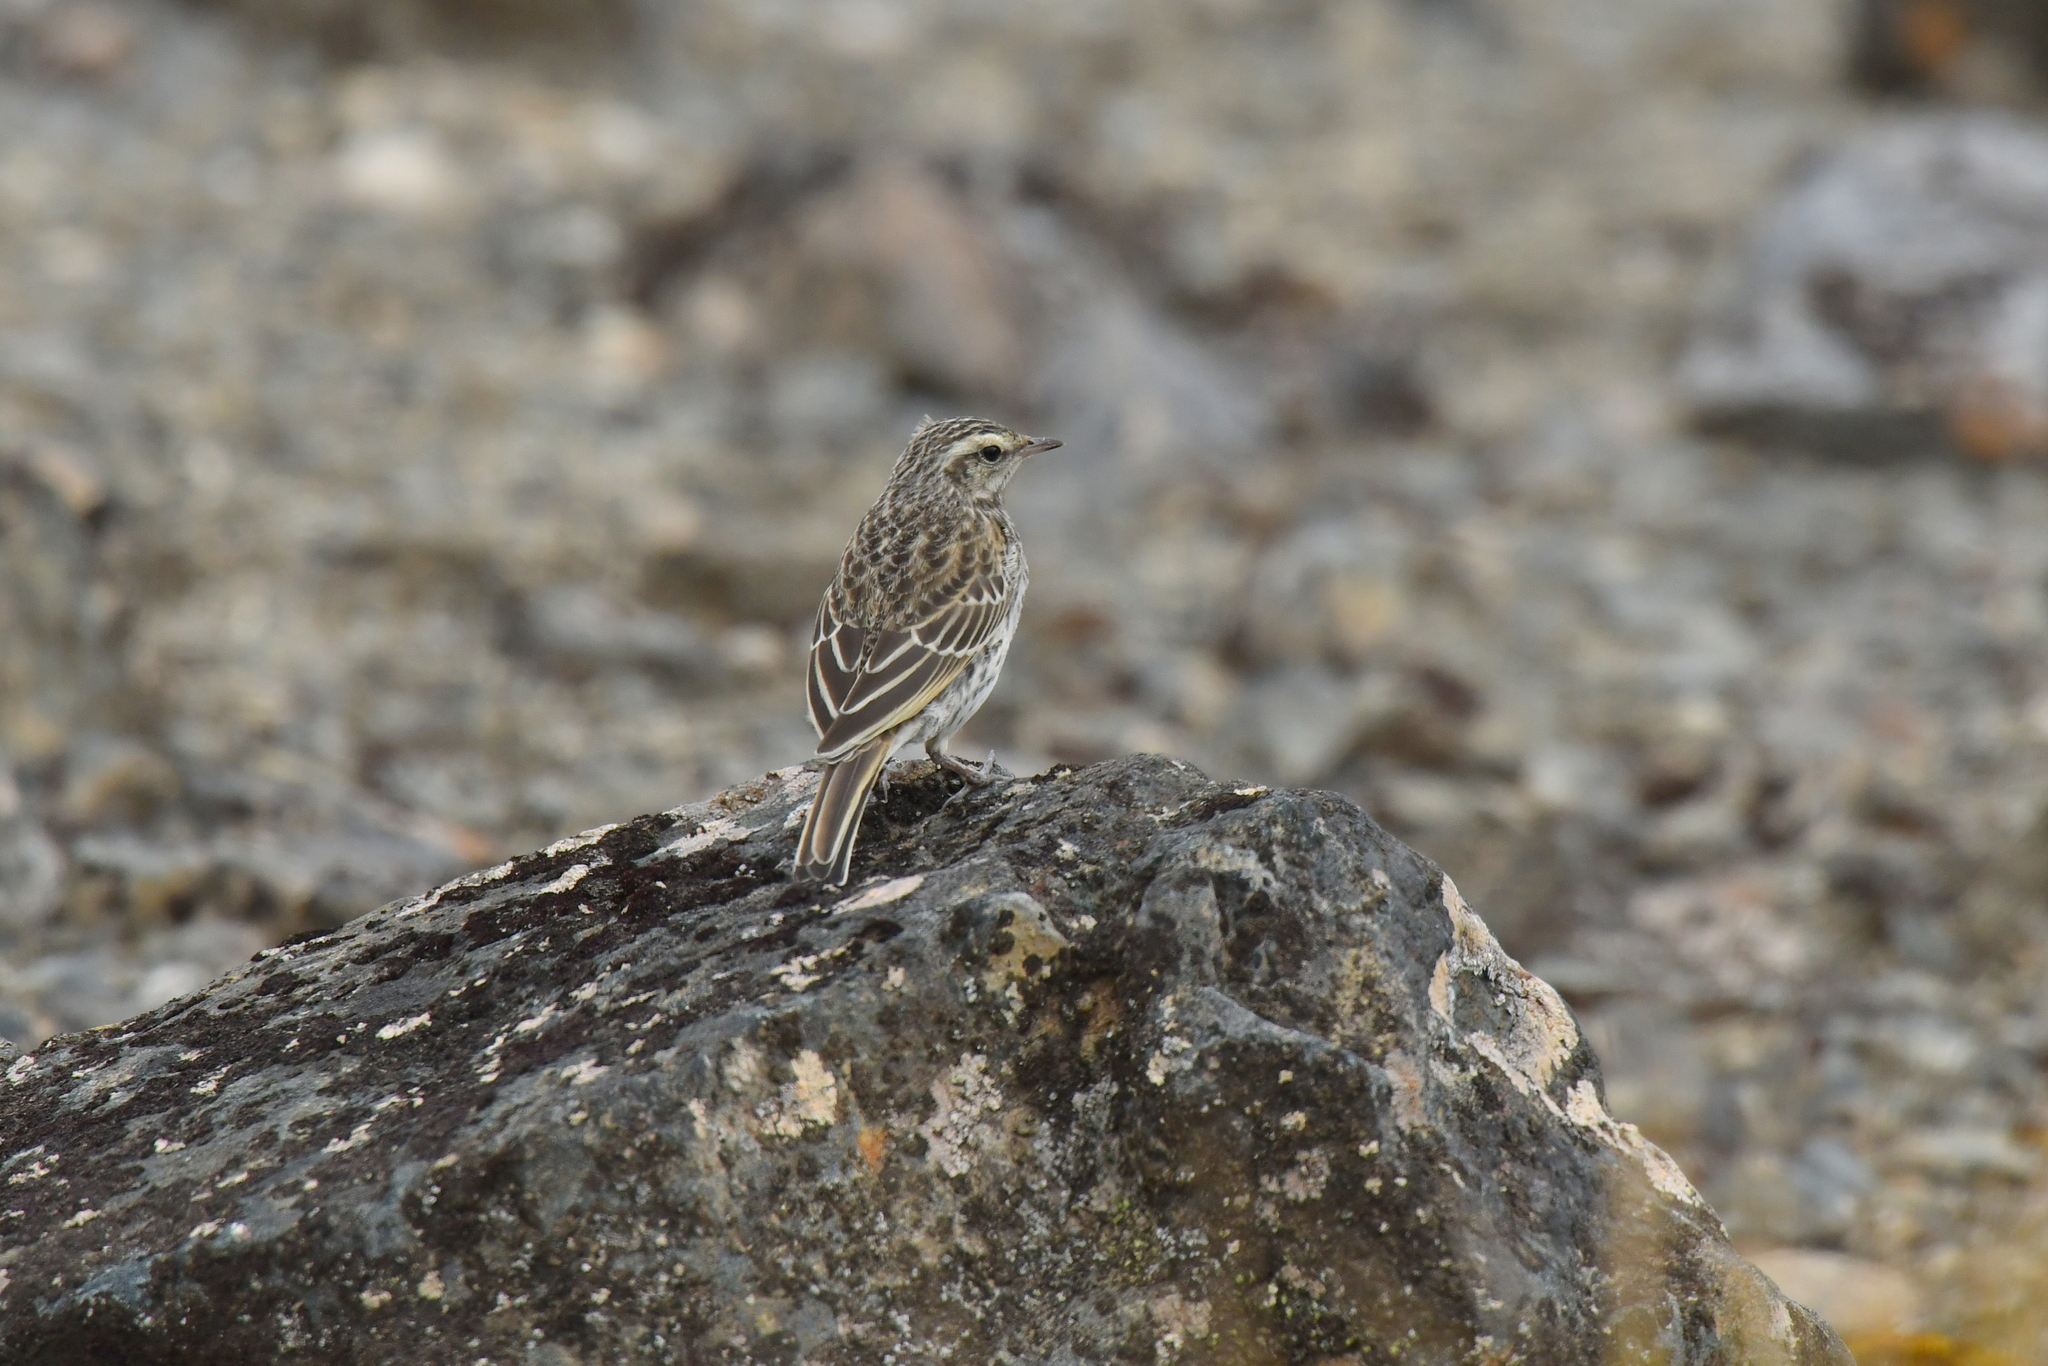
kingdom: Animalia
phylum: Chordata
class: Aves
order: Passeriformes
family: Motacillidae
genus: Anthus
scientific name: Anthus novaeseelandiae
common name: New zealand pipit
